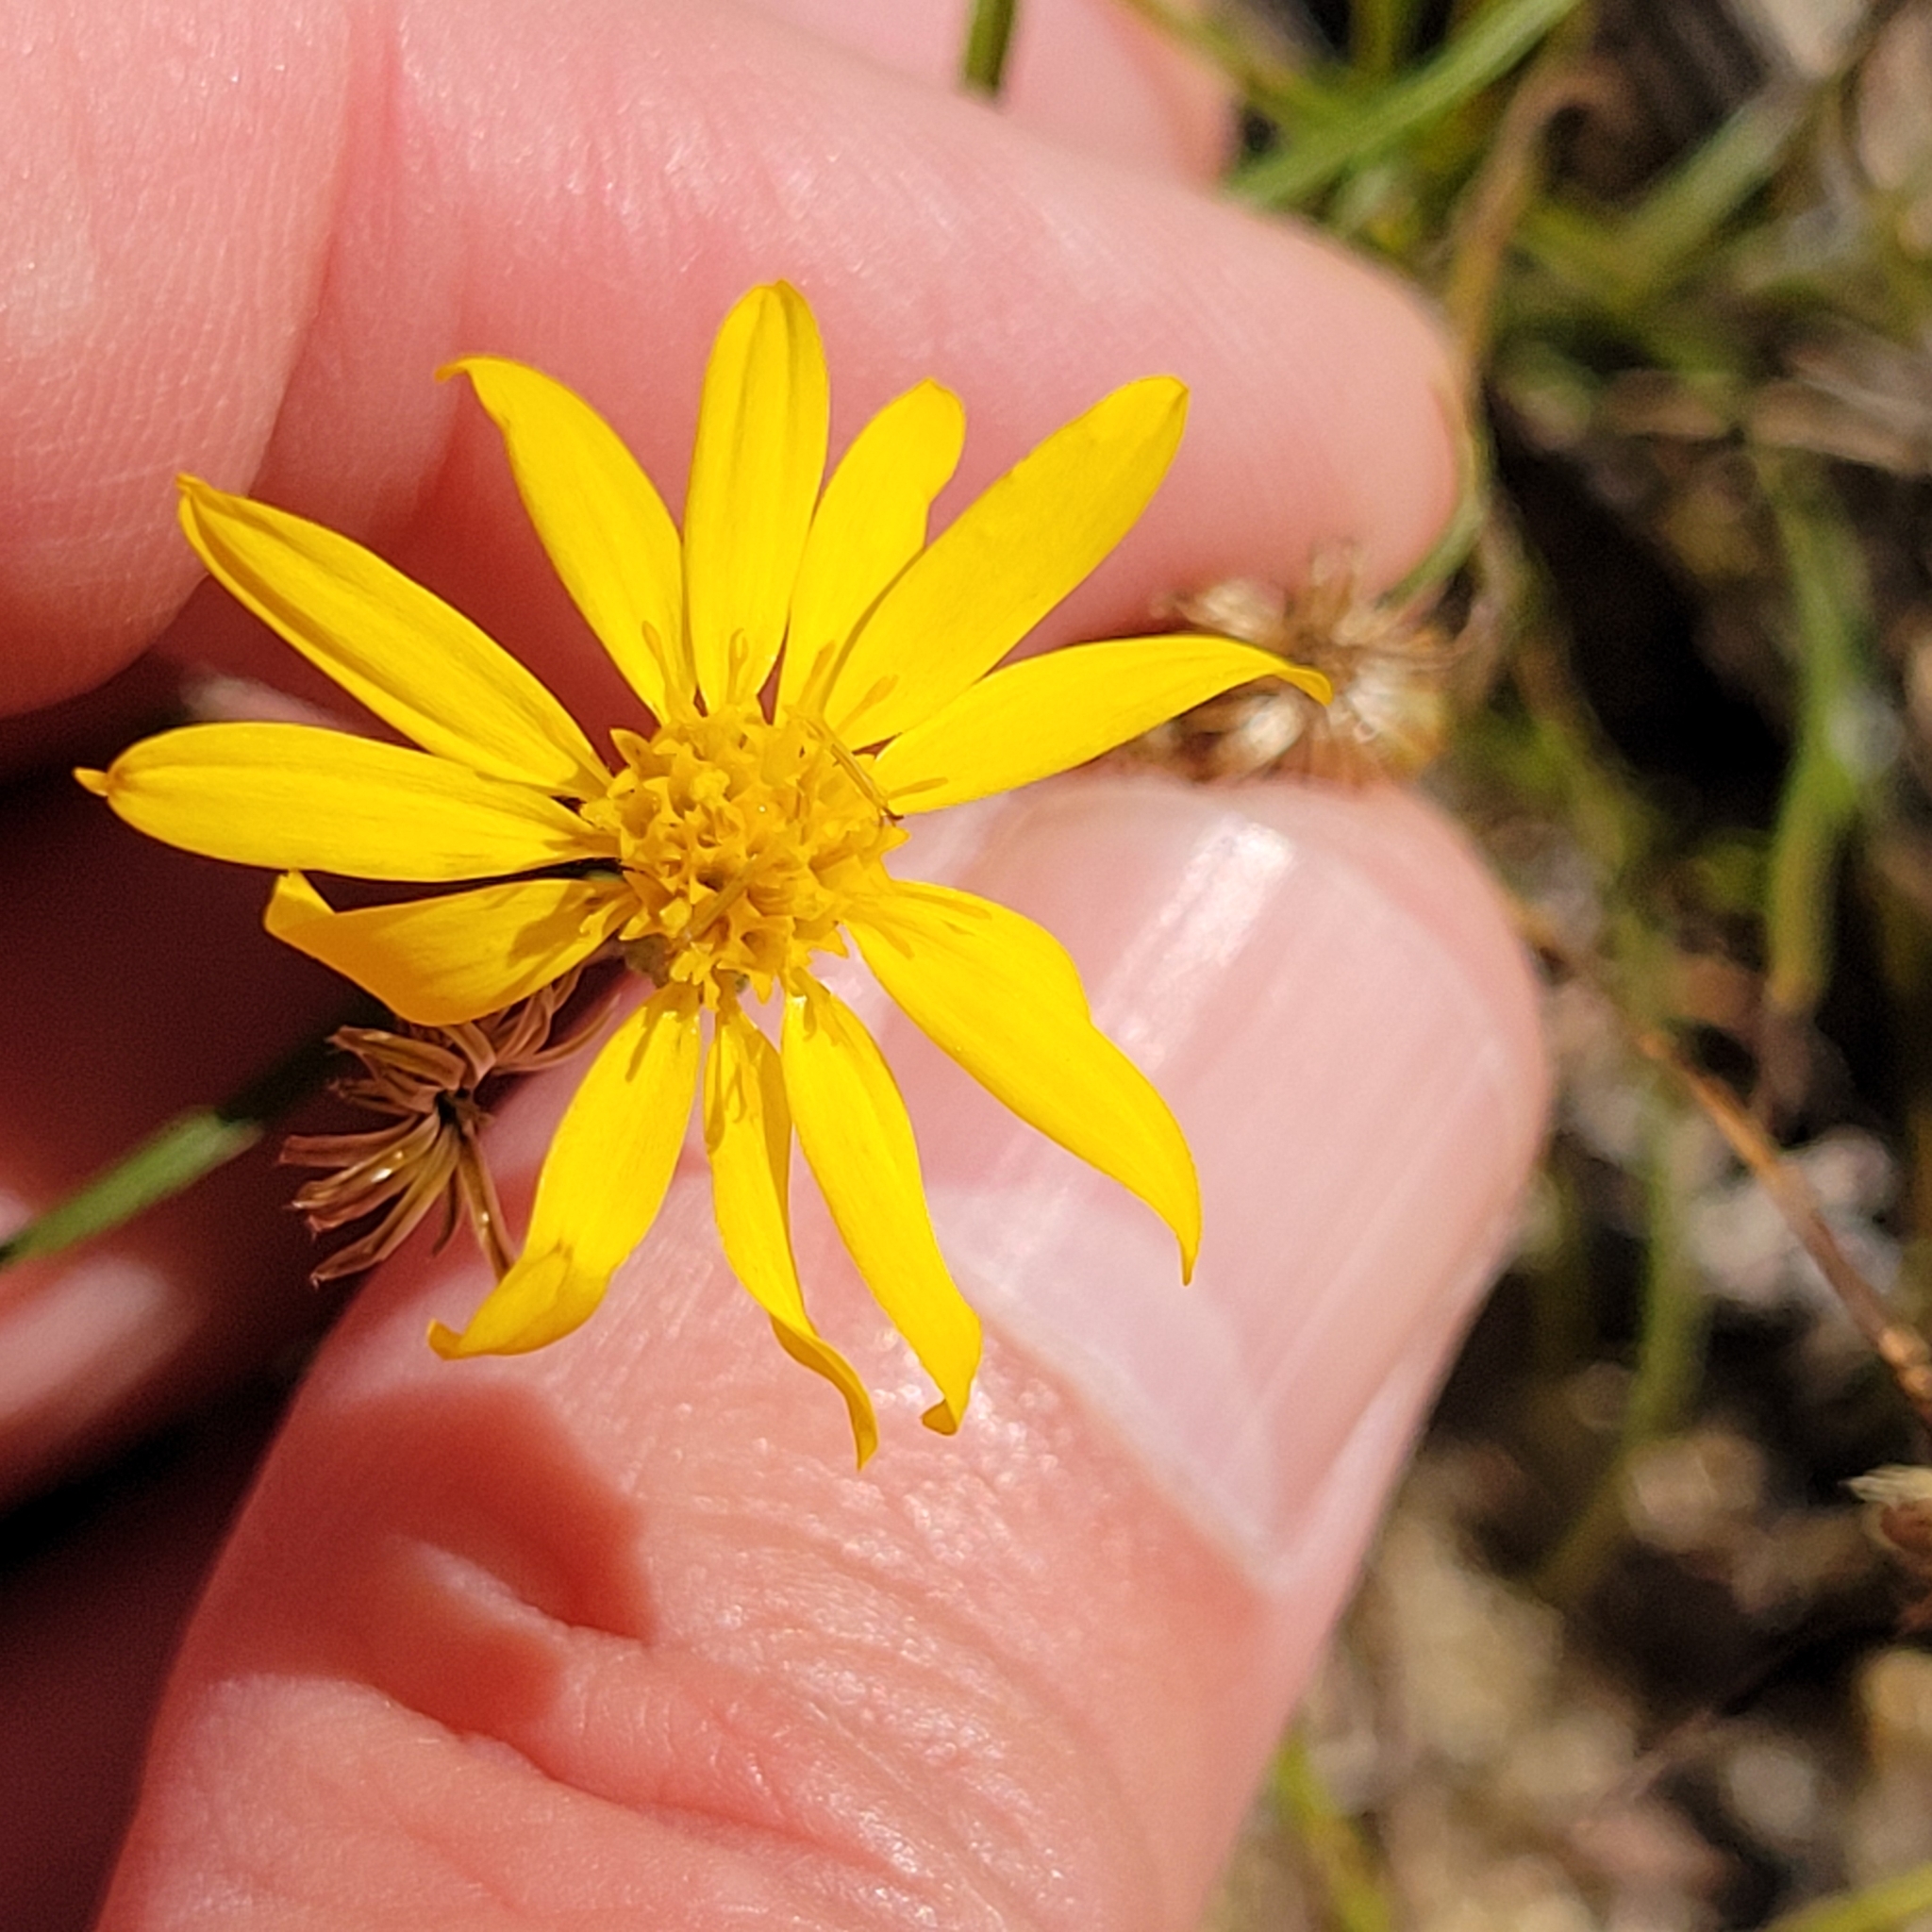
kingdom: Plantae
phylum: Tracheophyta
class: Magnoliopsida
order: Asterales
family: Asteraceae
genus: Pityopsis
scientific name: Pityopsis falcata
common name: Sickle-leaved goldenaster
